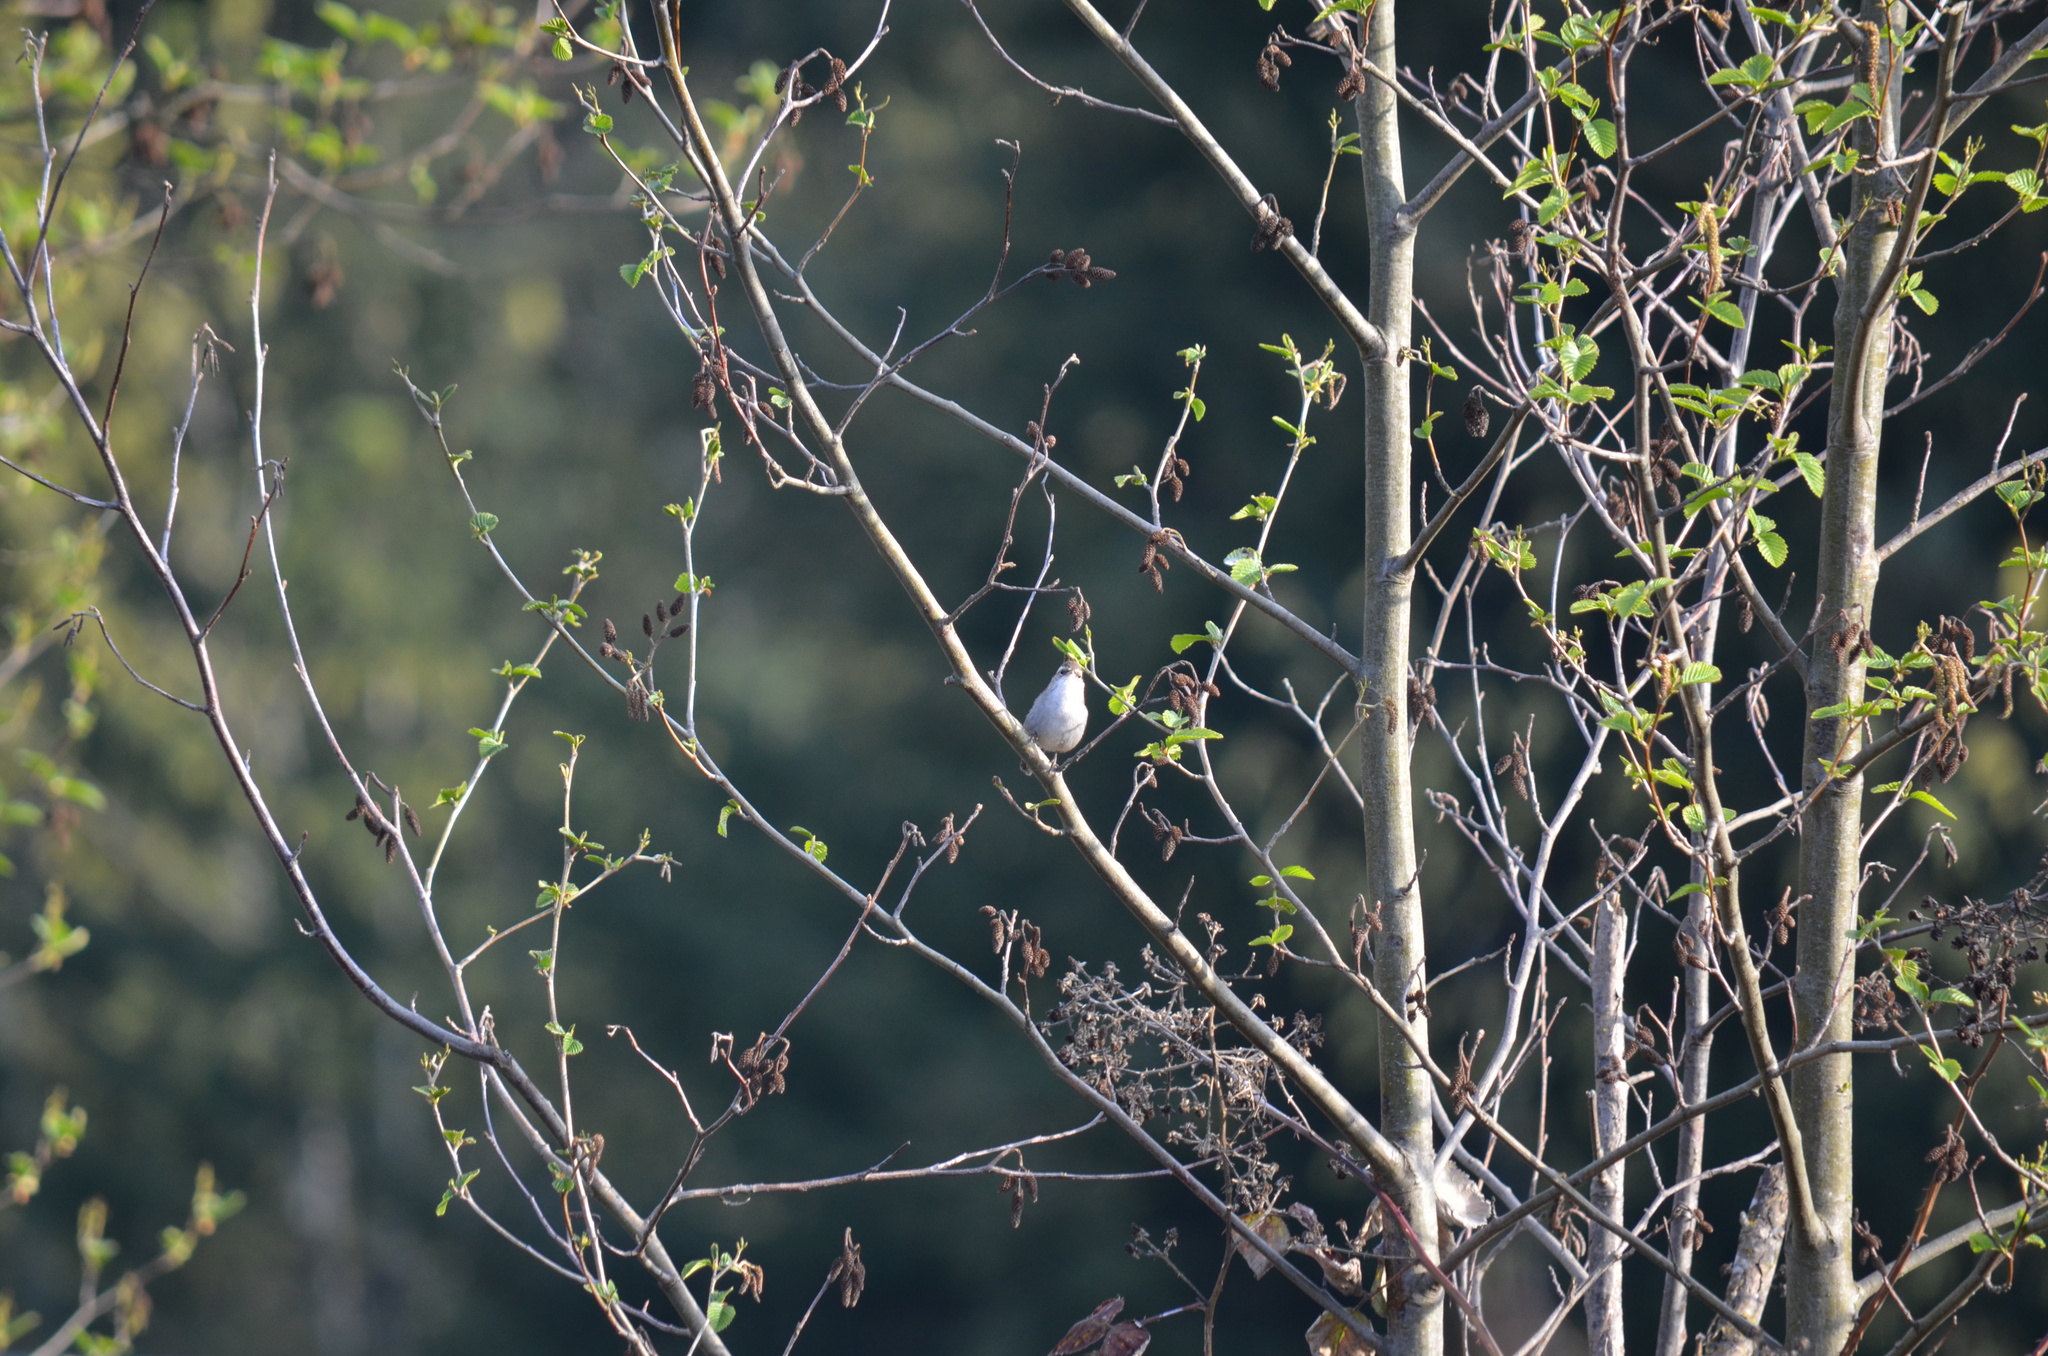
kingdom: Animalia
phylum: Chordata
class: Aves
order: Passeriformes
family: Troglodytidae
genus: Thryomanes
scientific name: Thryomanes bewickii
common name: Bewick's wren
